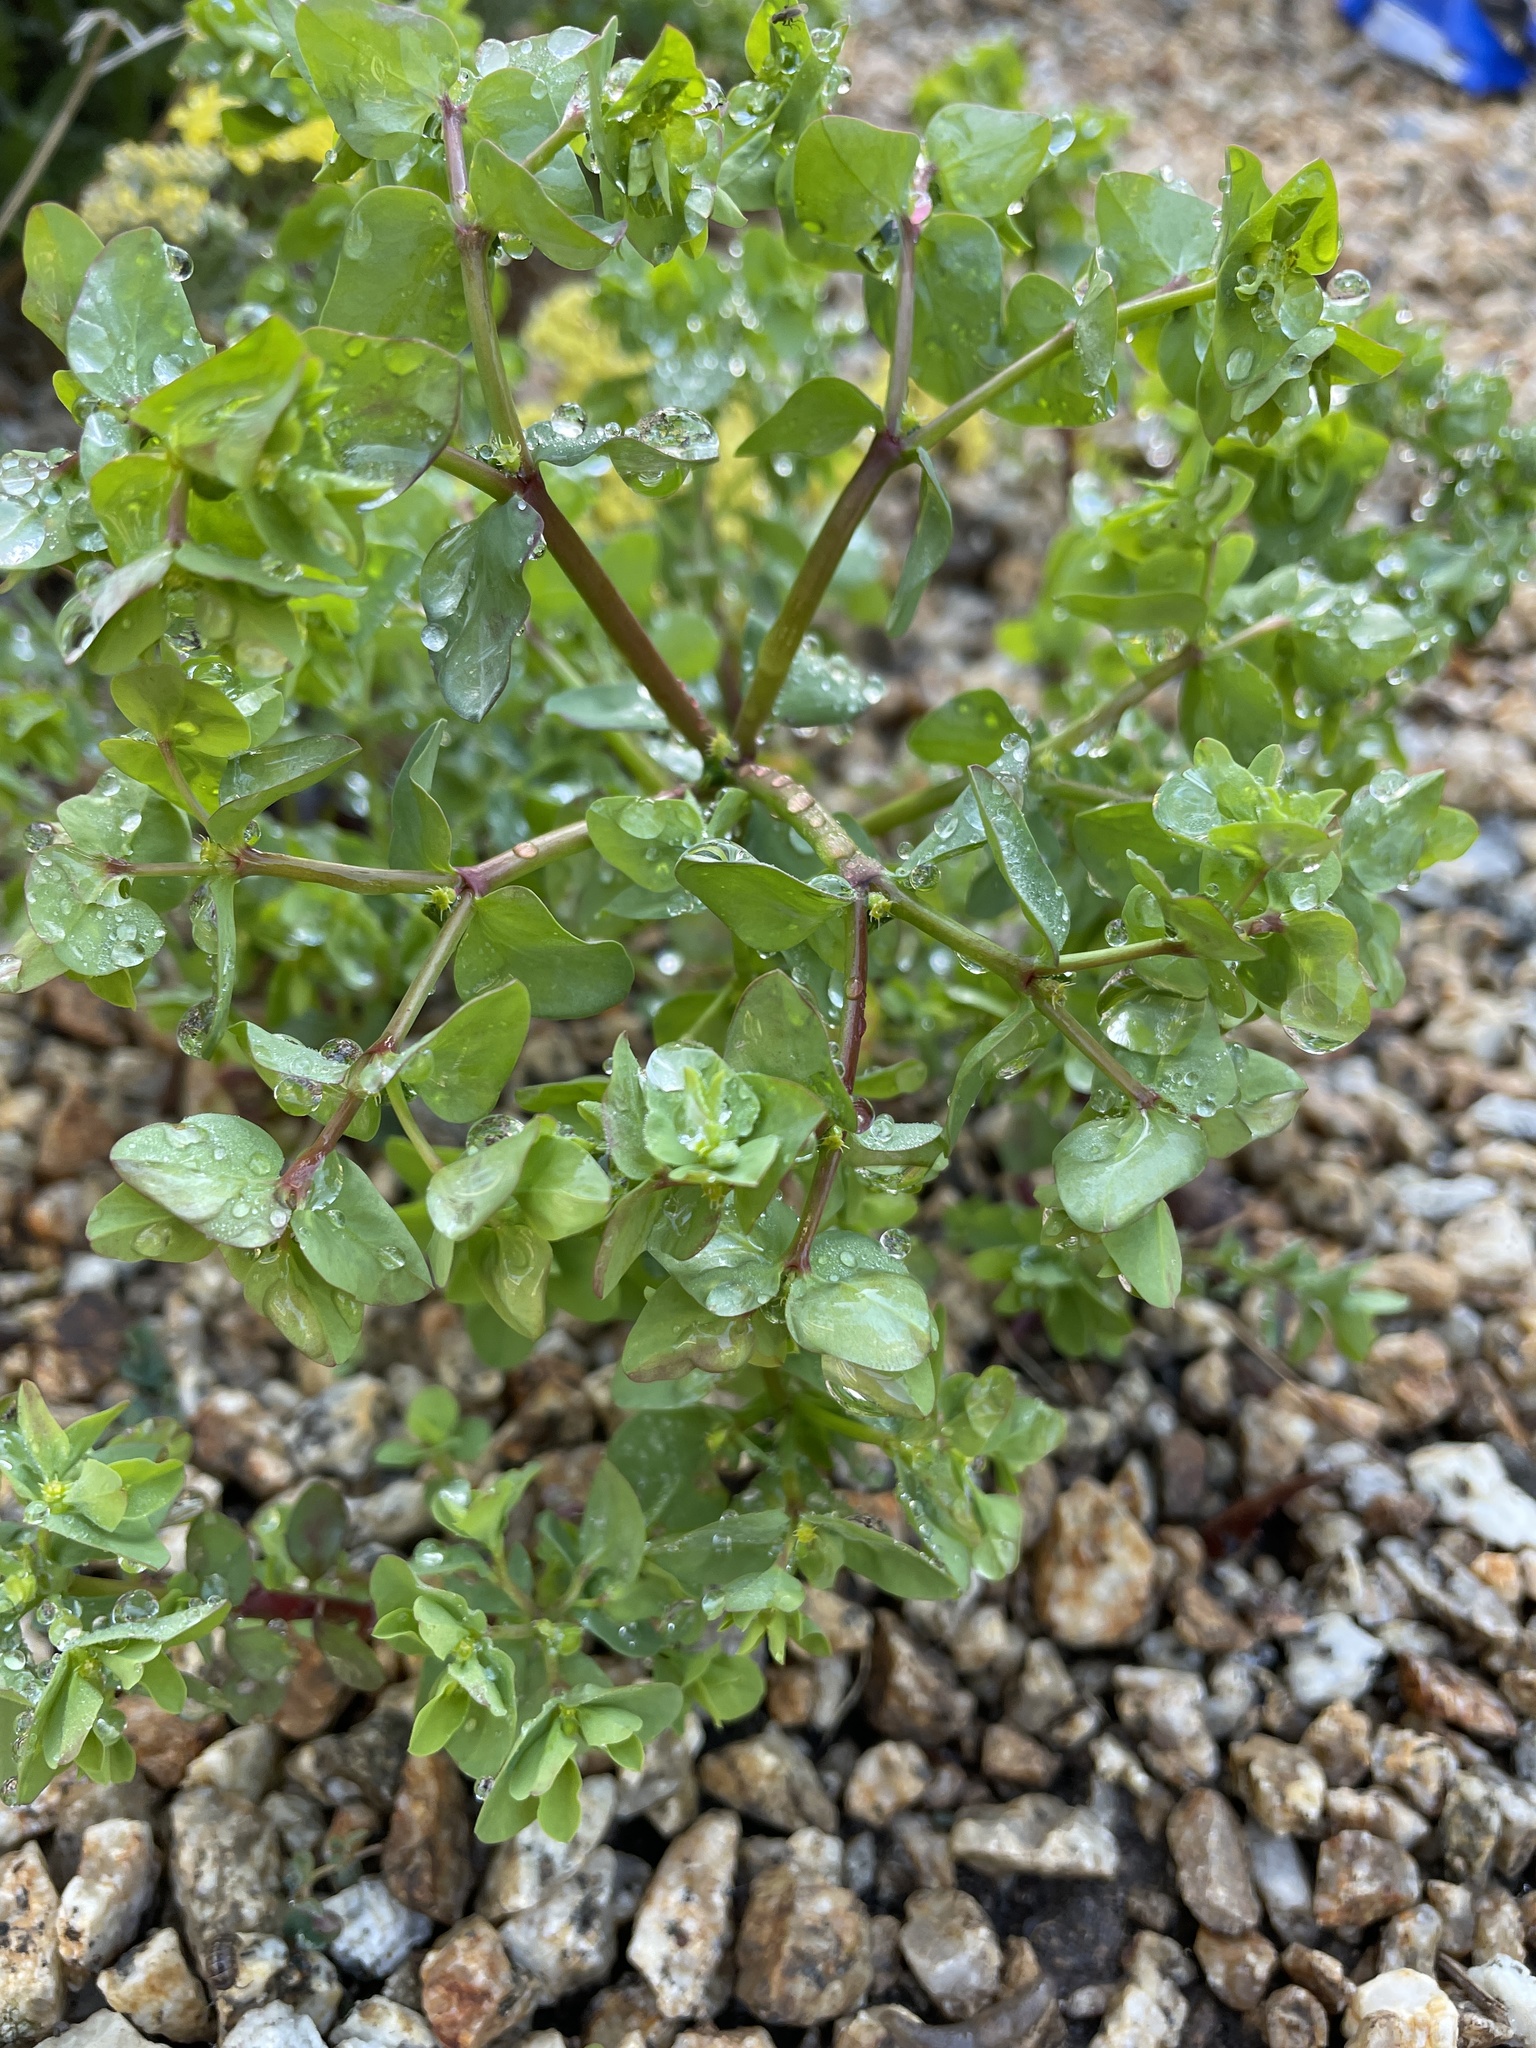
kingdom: Plantae
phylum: Tracheophyta
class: Magnoliopsida
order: Malpighiales
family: Euphorbiaceae
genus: Euphorbia
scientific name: Euphorbia peplus
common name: Petty spurge
